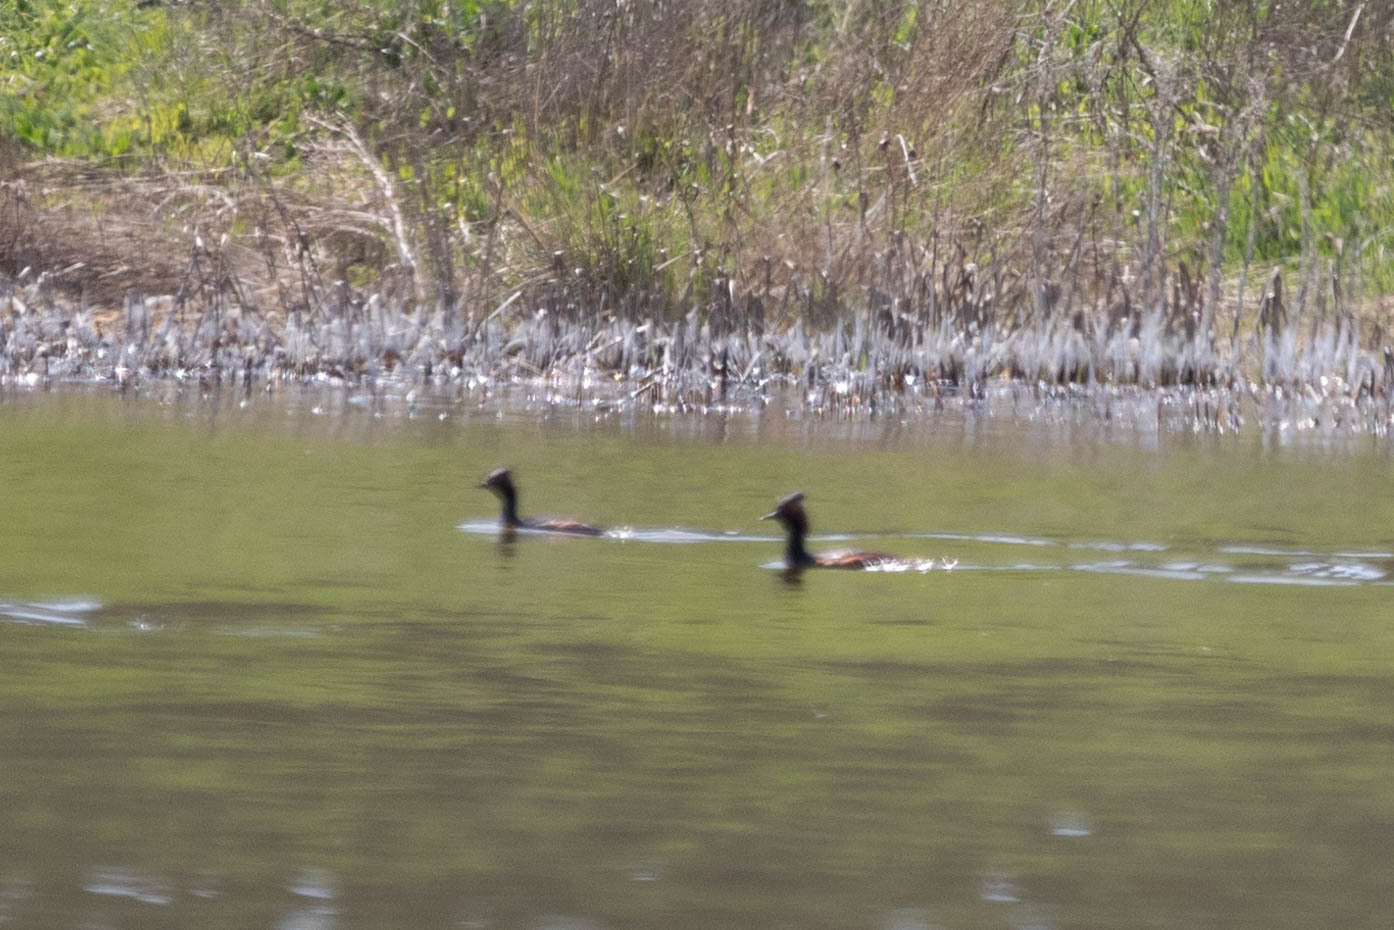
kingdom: Animalia
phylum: Chordata
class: Aves
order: Podicipediformes
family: Podicipedidae
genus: Podiceps
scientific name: Podiceps nigricollis
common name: Black-necked grebe
